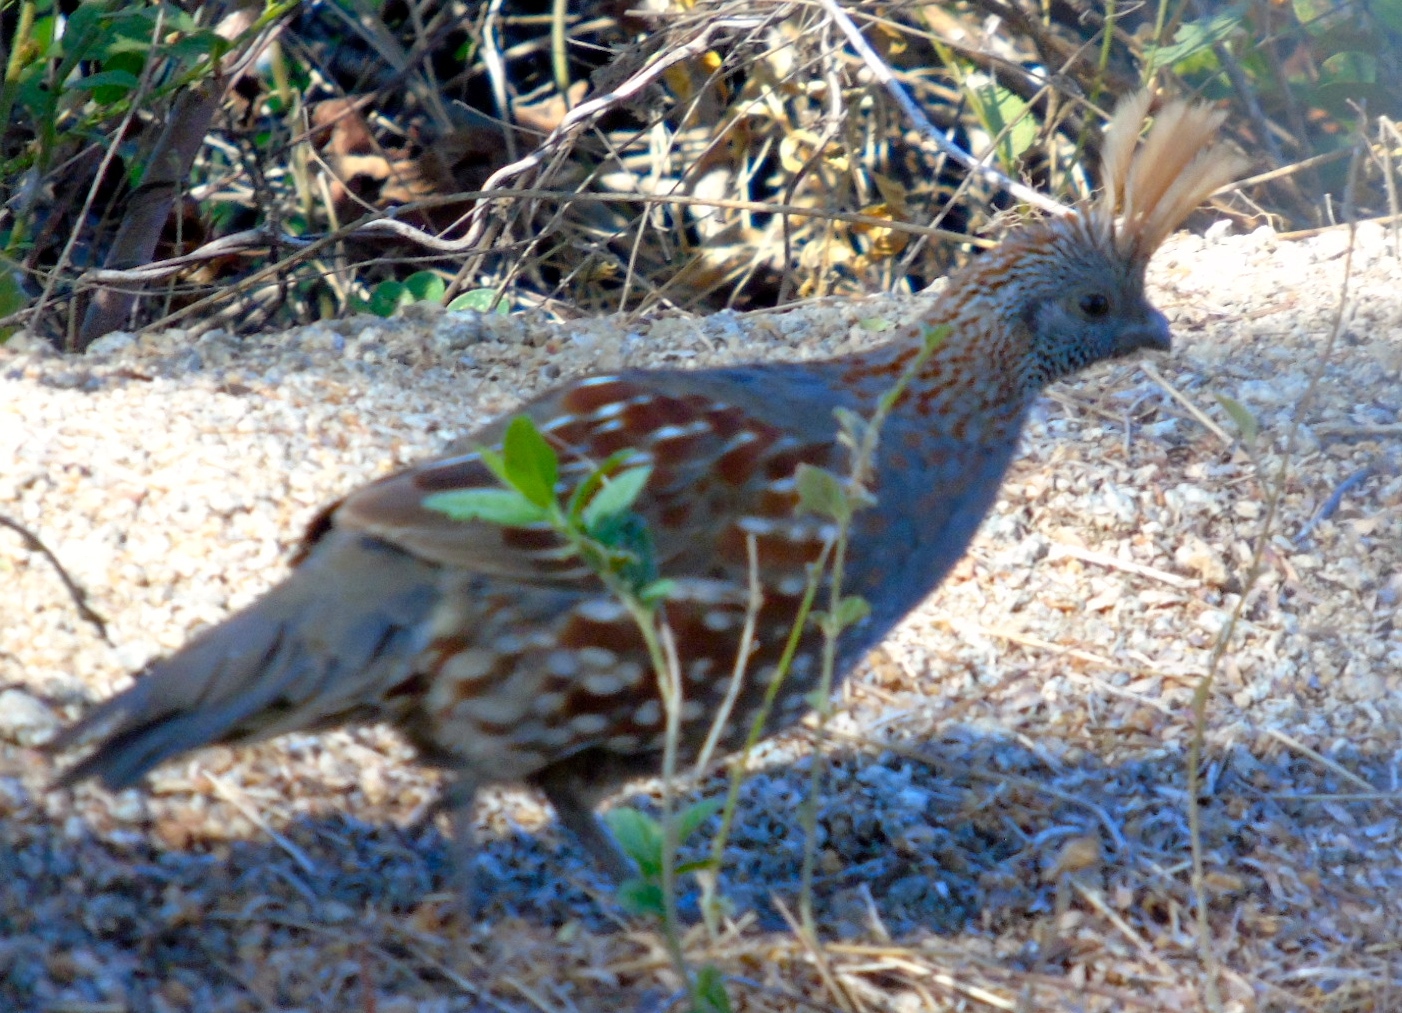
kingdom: Animalia
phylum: Chordata
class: Aves
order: Galliformes
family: Odontophoridae
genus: Callipepla
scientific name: Callipepla douglasii
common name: Elegant quail
